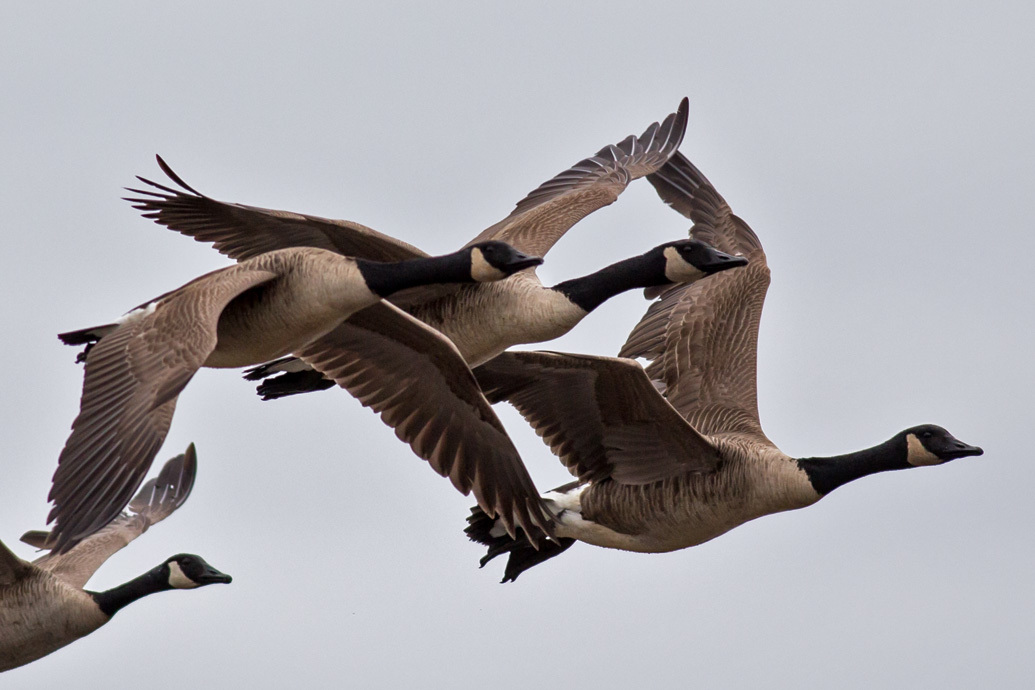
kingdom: Animalia
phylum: Chordata
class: Aves
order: Anseriformes
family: Anatidae
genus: Branta
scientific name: Branta canadensis
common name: Canada goose
